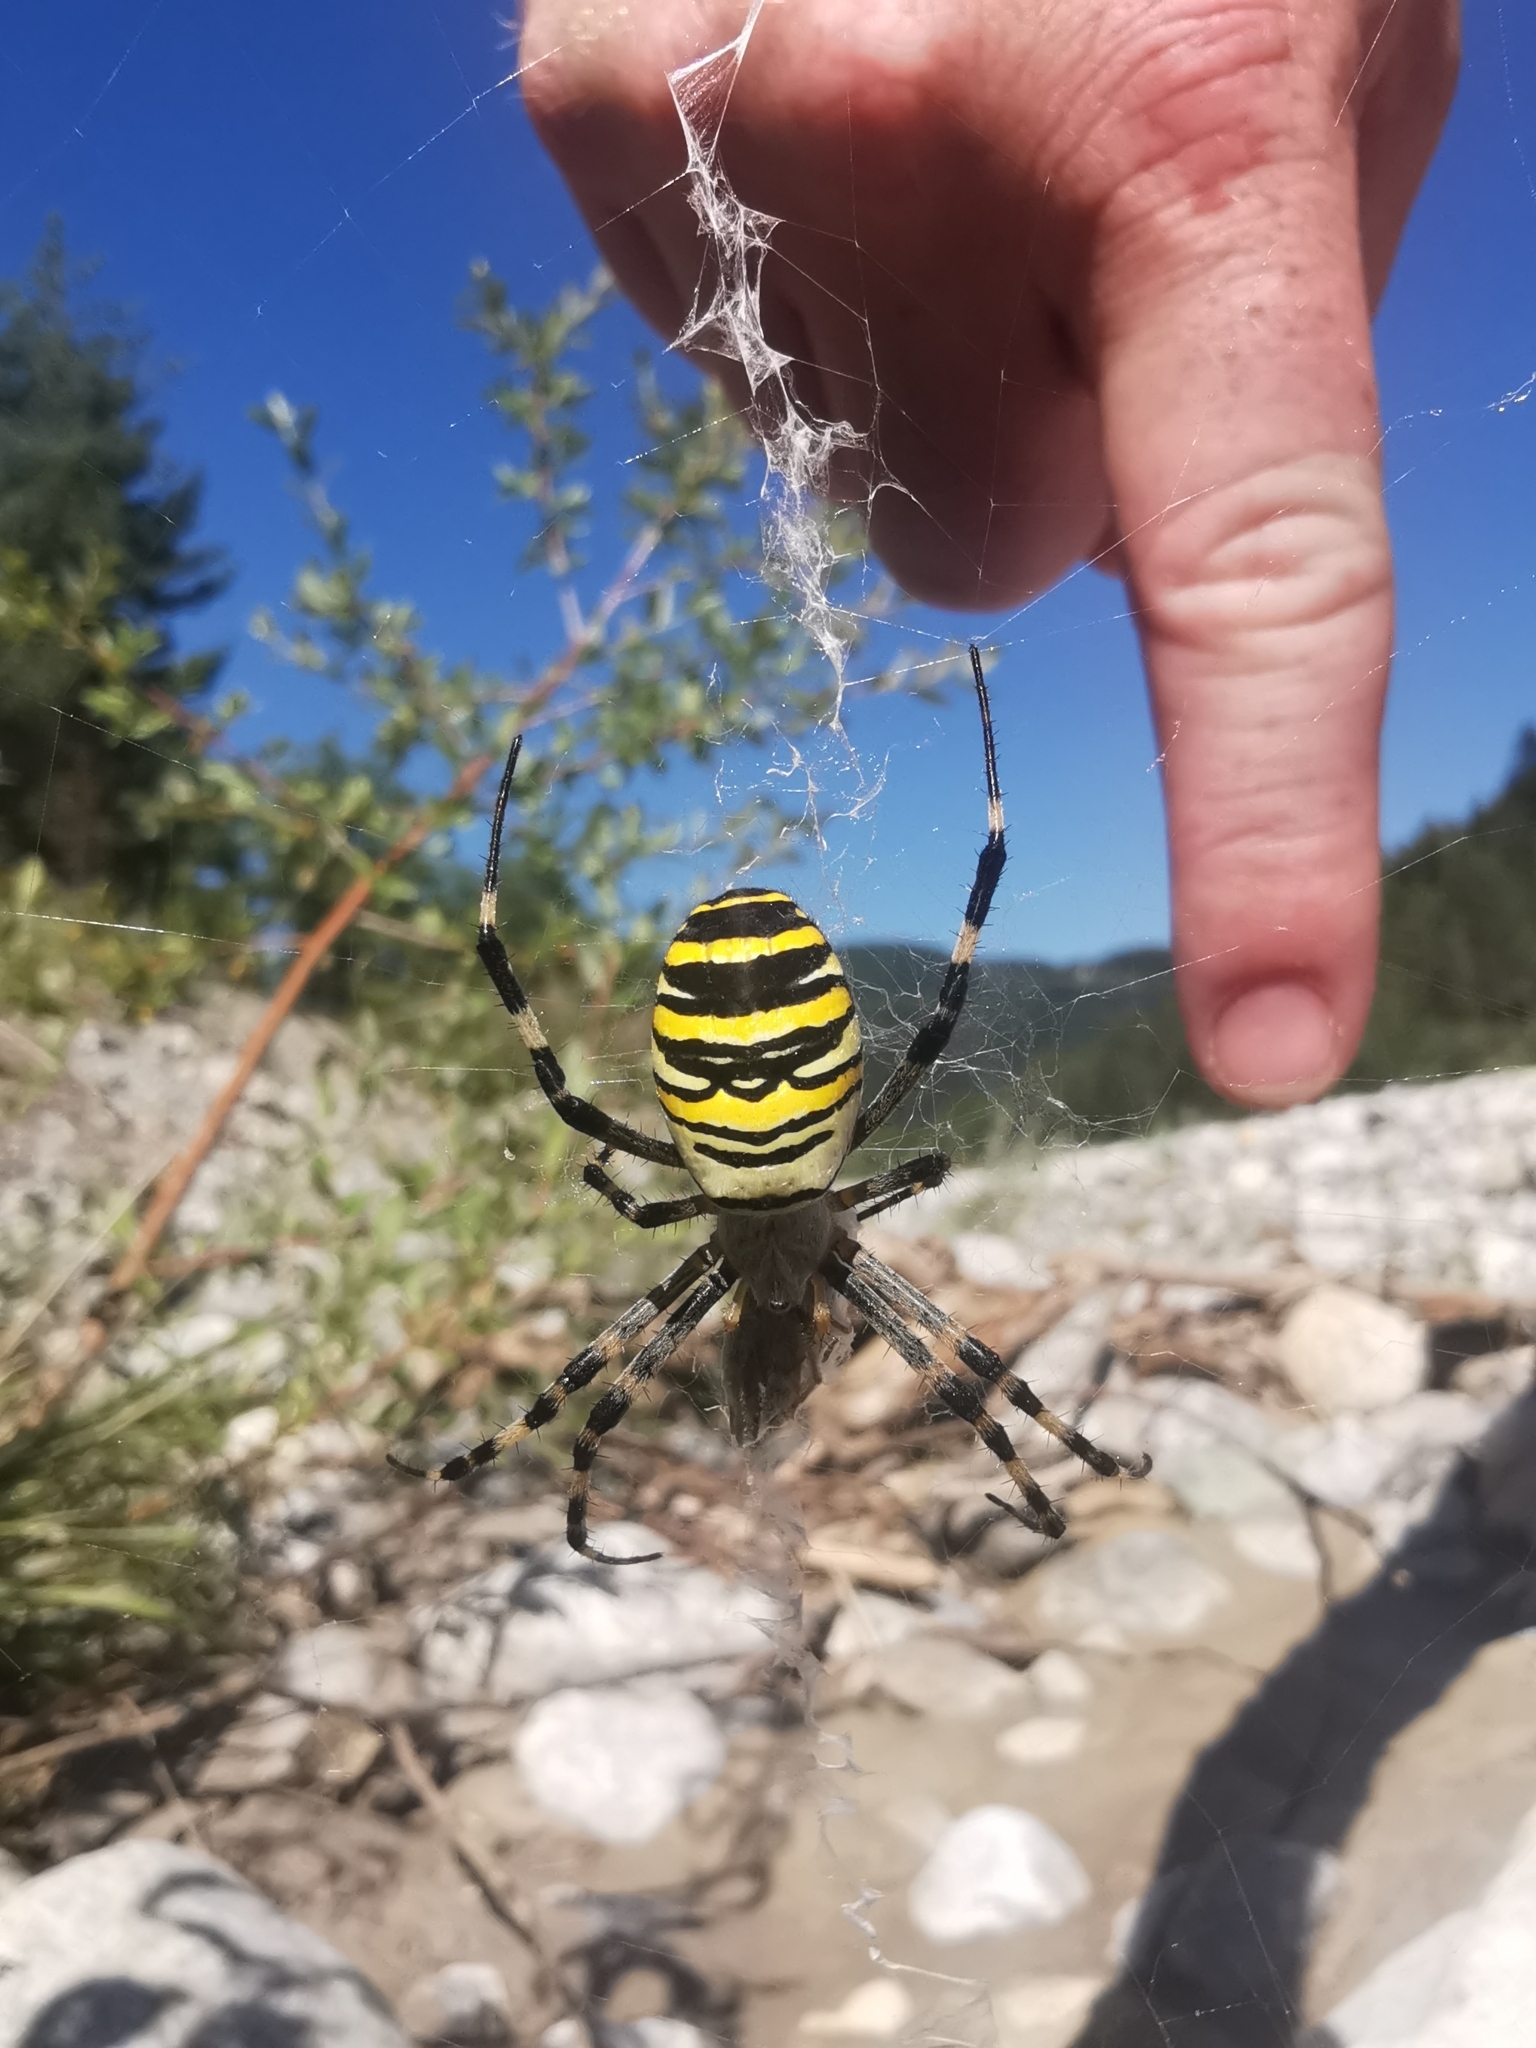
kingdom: Animalia
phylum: Arthropoda
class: Arachnida
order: Araneae
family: Araneidae
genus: Argiope
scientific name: Argiope bruennichi
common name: Wasp spider
